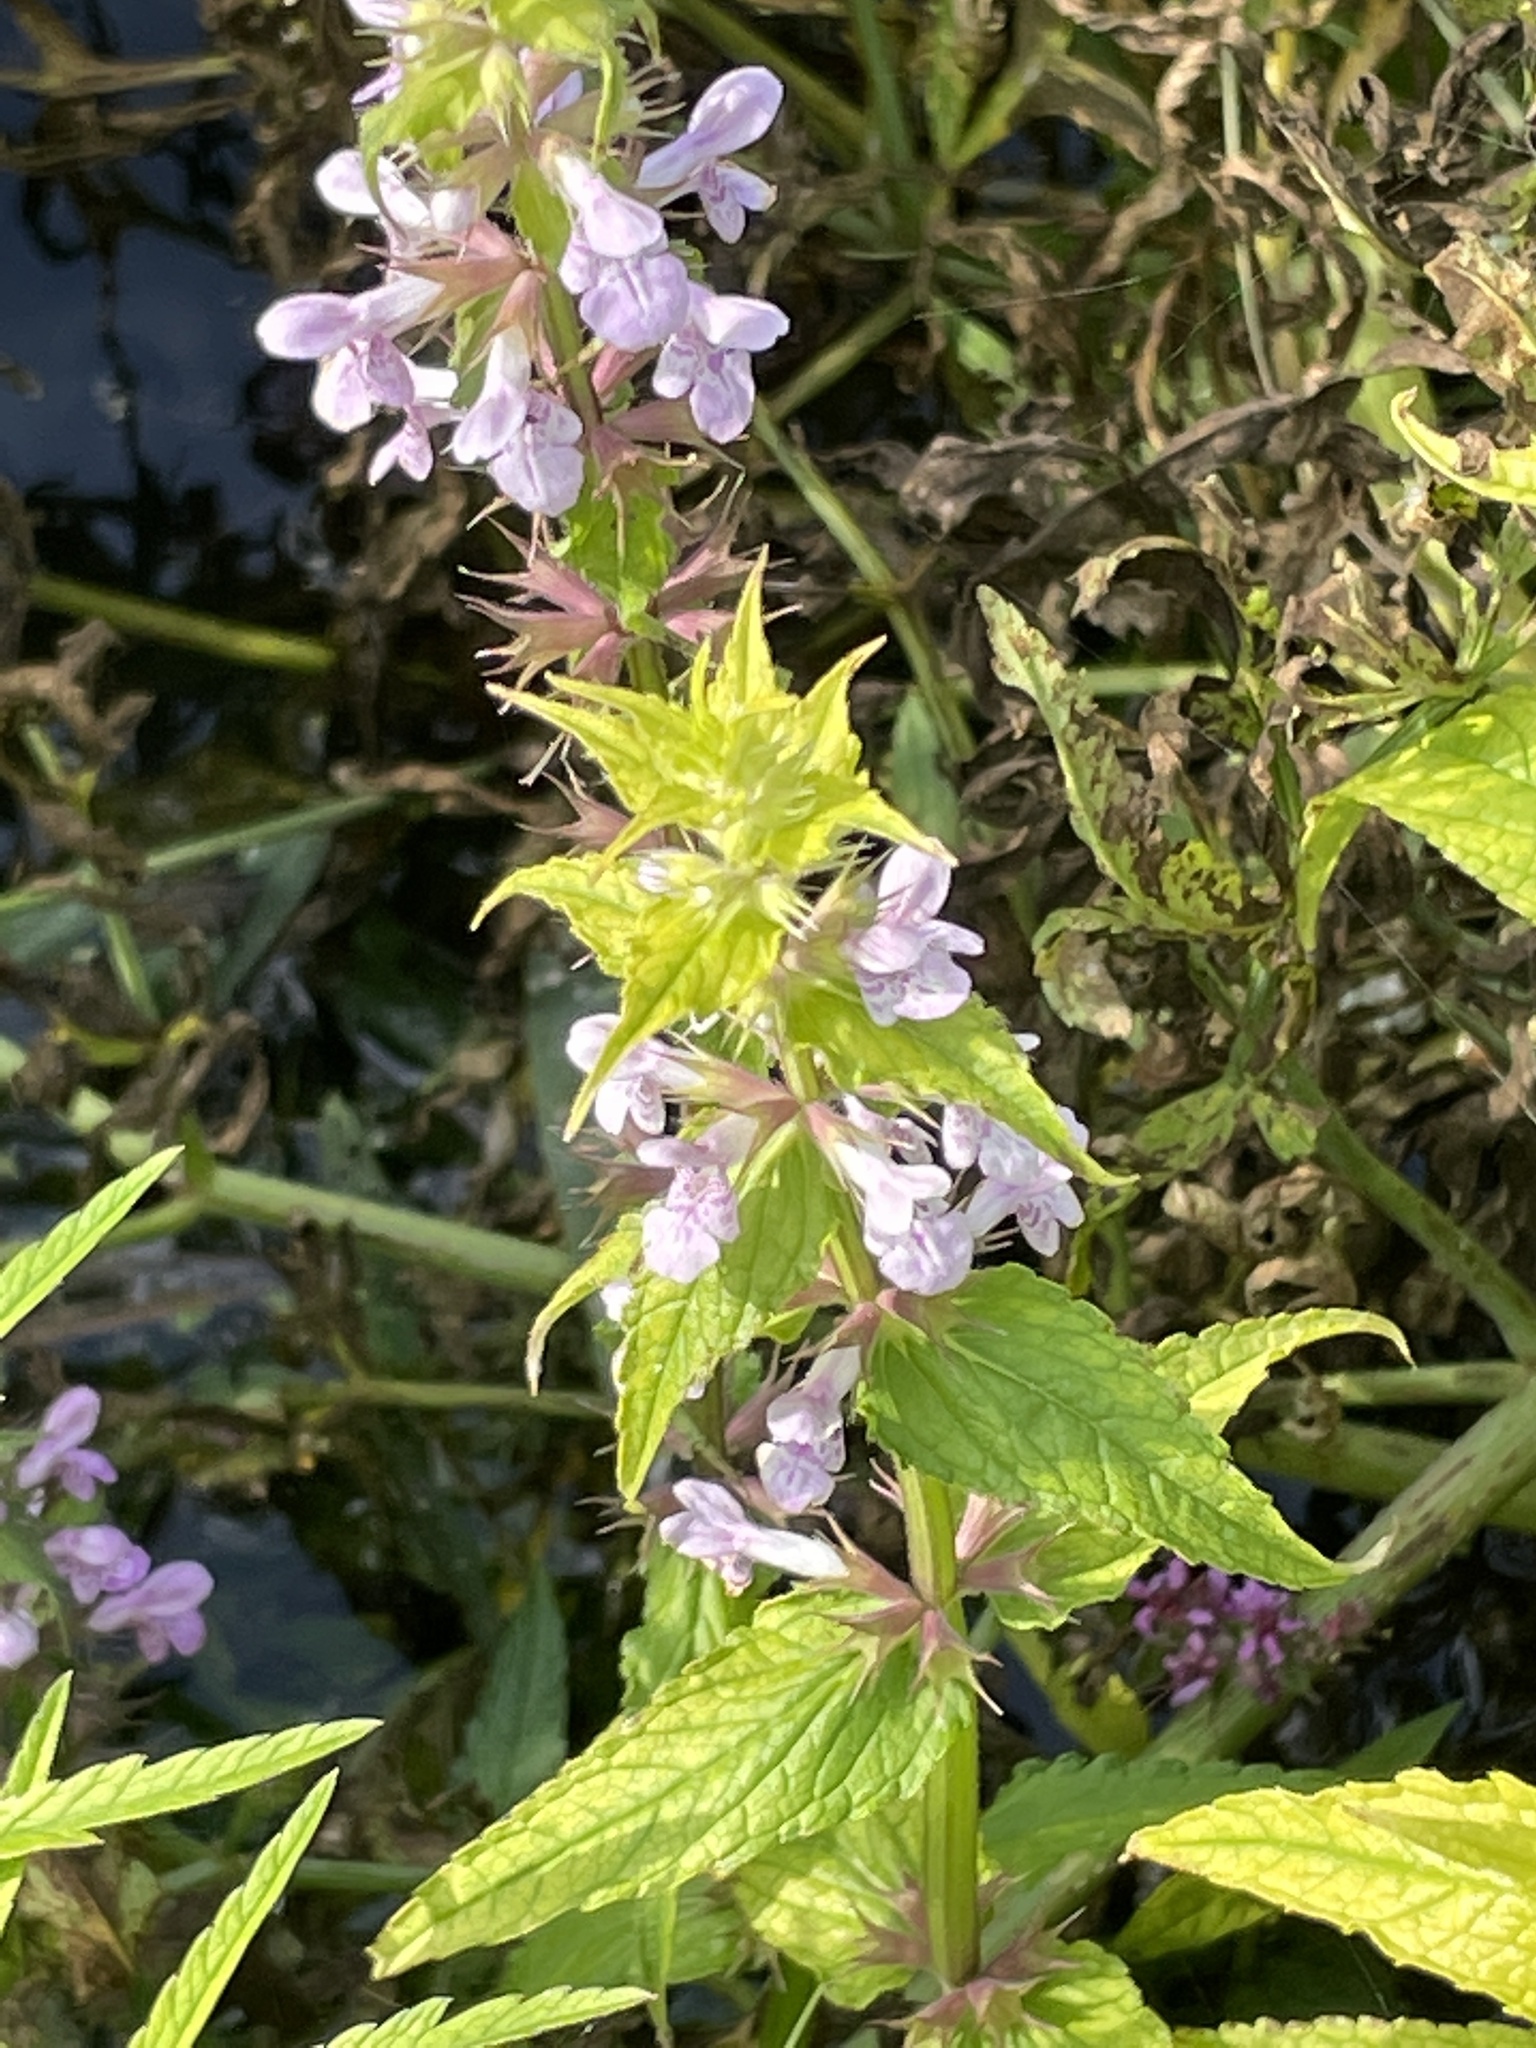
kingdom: Plantae
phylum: Tracheophyta
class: Magnoliopsida
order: Lamiales
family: Lamiaceae
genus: Stachys
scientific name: Stachys palustris
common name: Marsh woundwort
